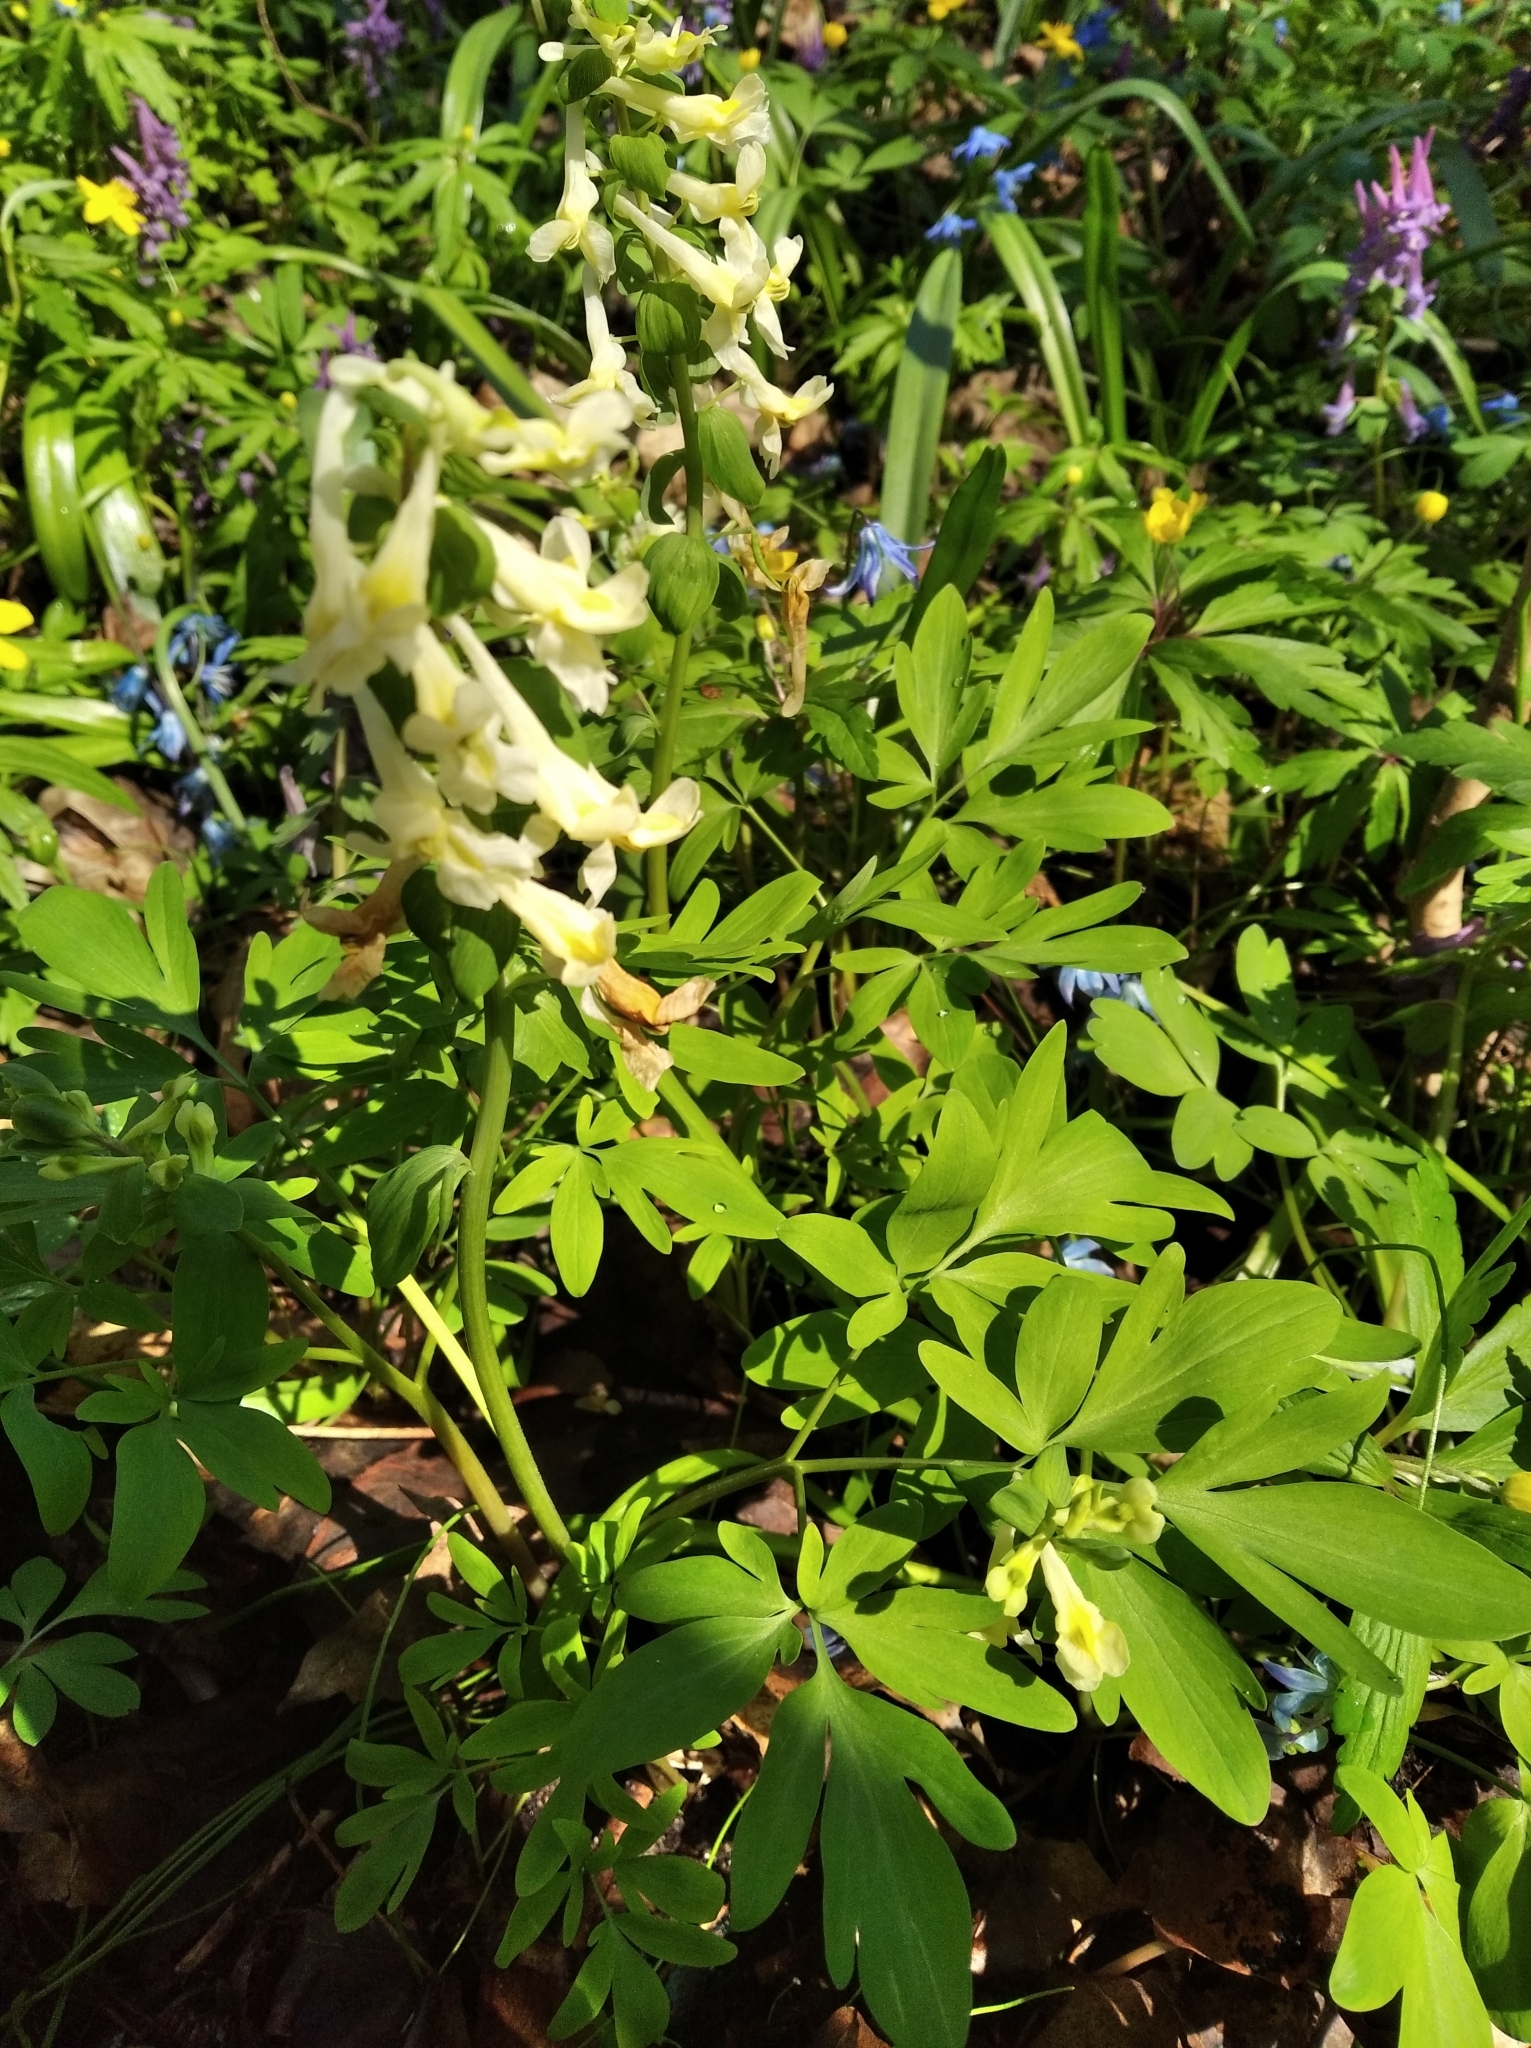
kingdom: Plantae
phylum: Tracheophyta
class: Magnoliopsida
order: Ranunculales
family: Papaveraceae
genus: Corydalis
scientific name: Corydalis cava
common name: Hollowroot
